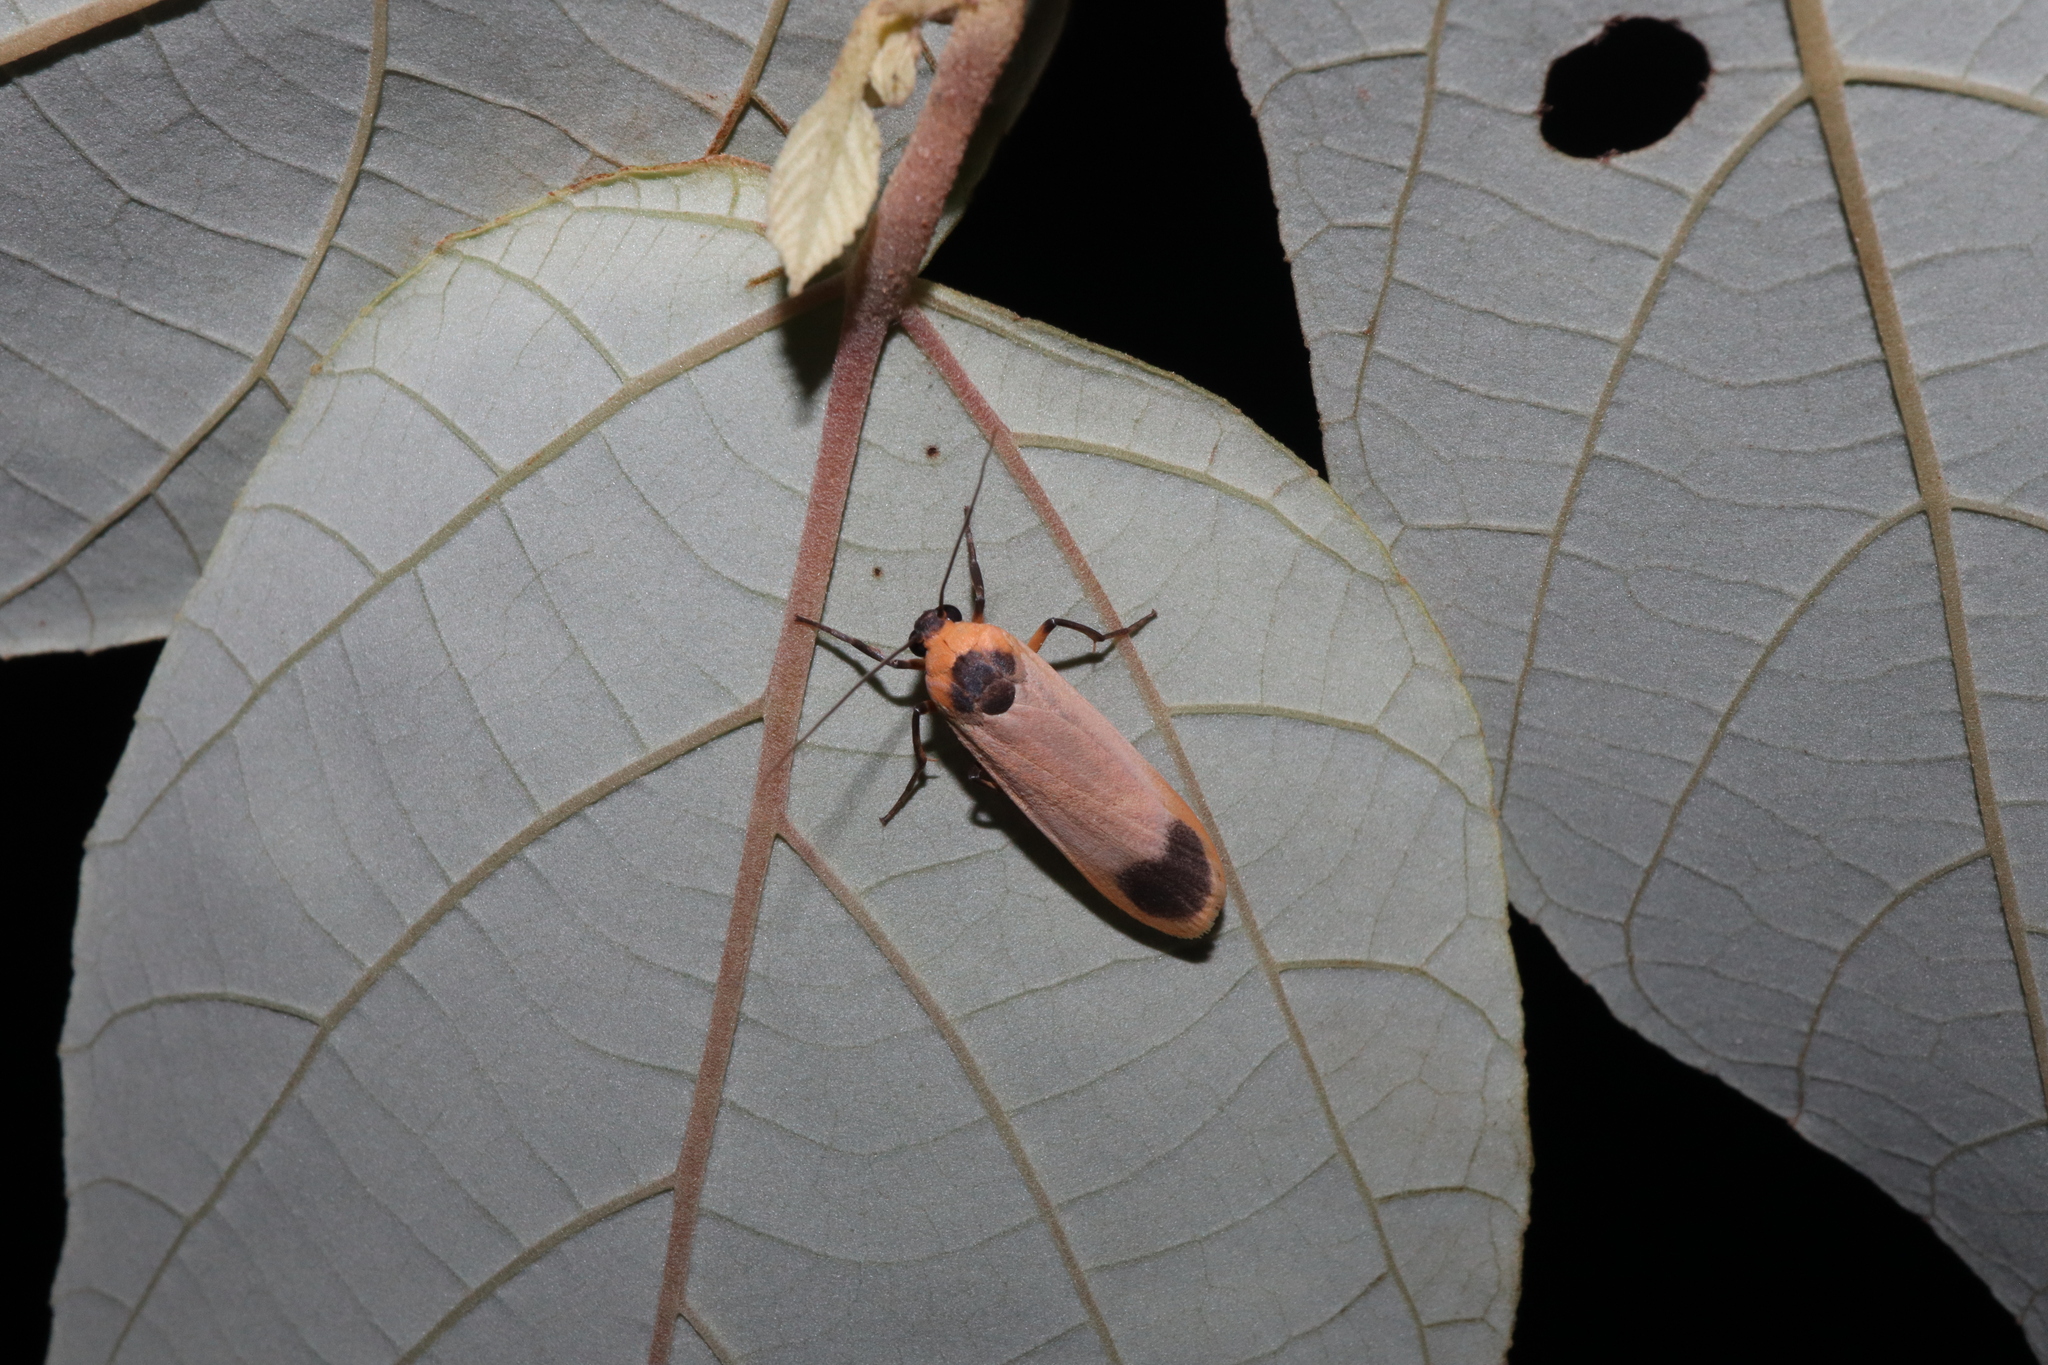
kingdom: Animalia
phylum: Arthropoda
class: Insecta
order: Lepidoptera
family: Erebidae
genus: Brunia
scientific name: Brunia dorsalis
